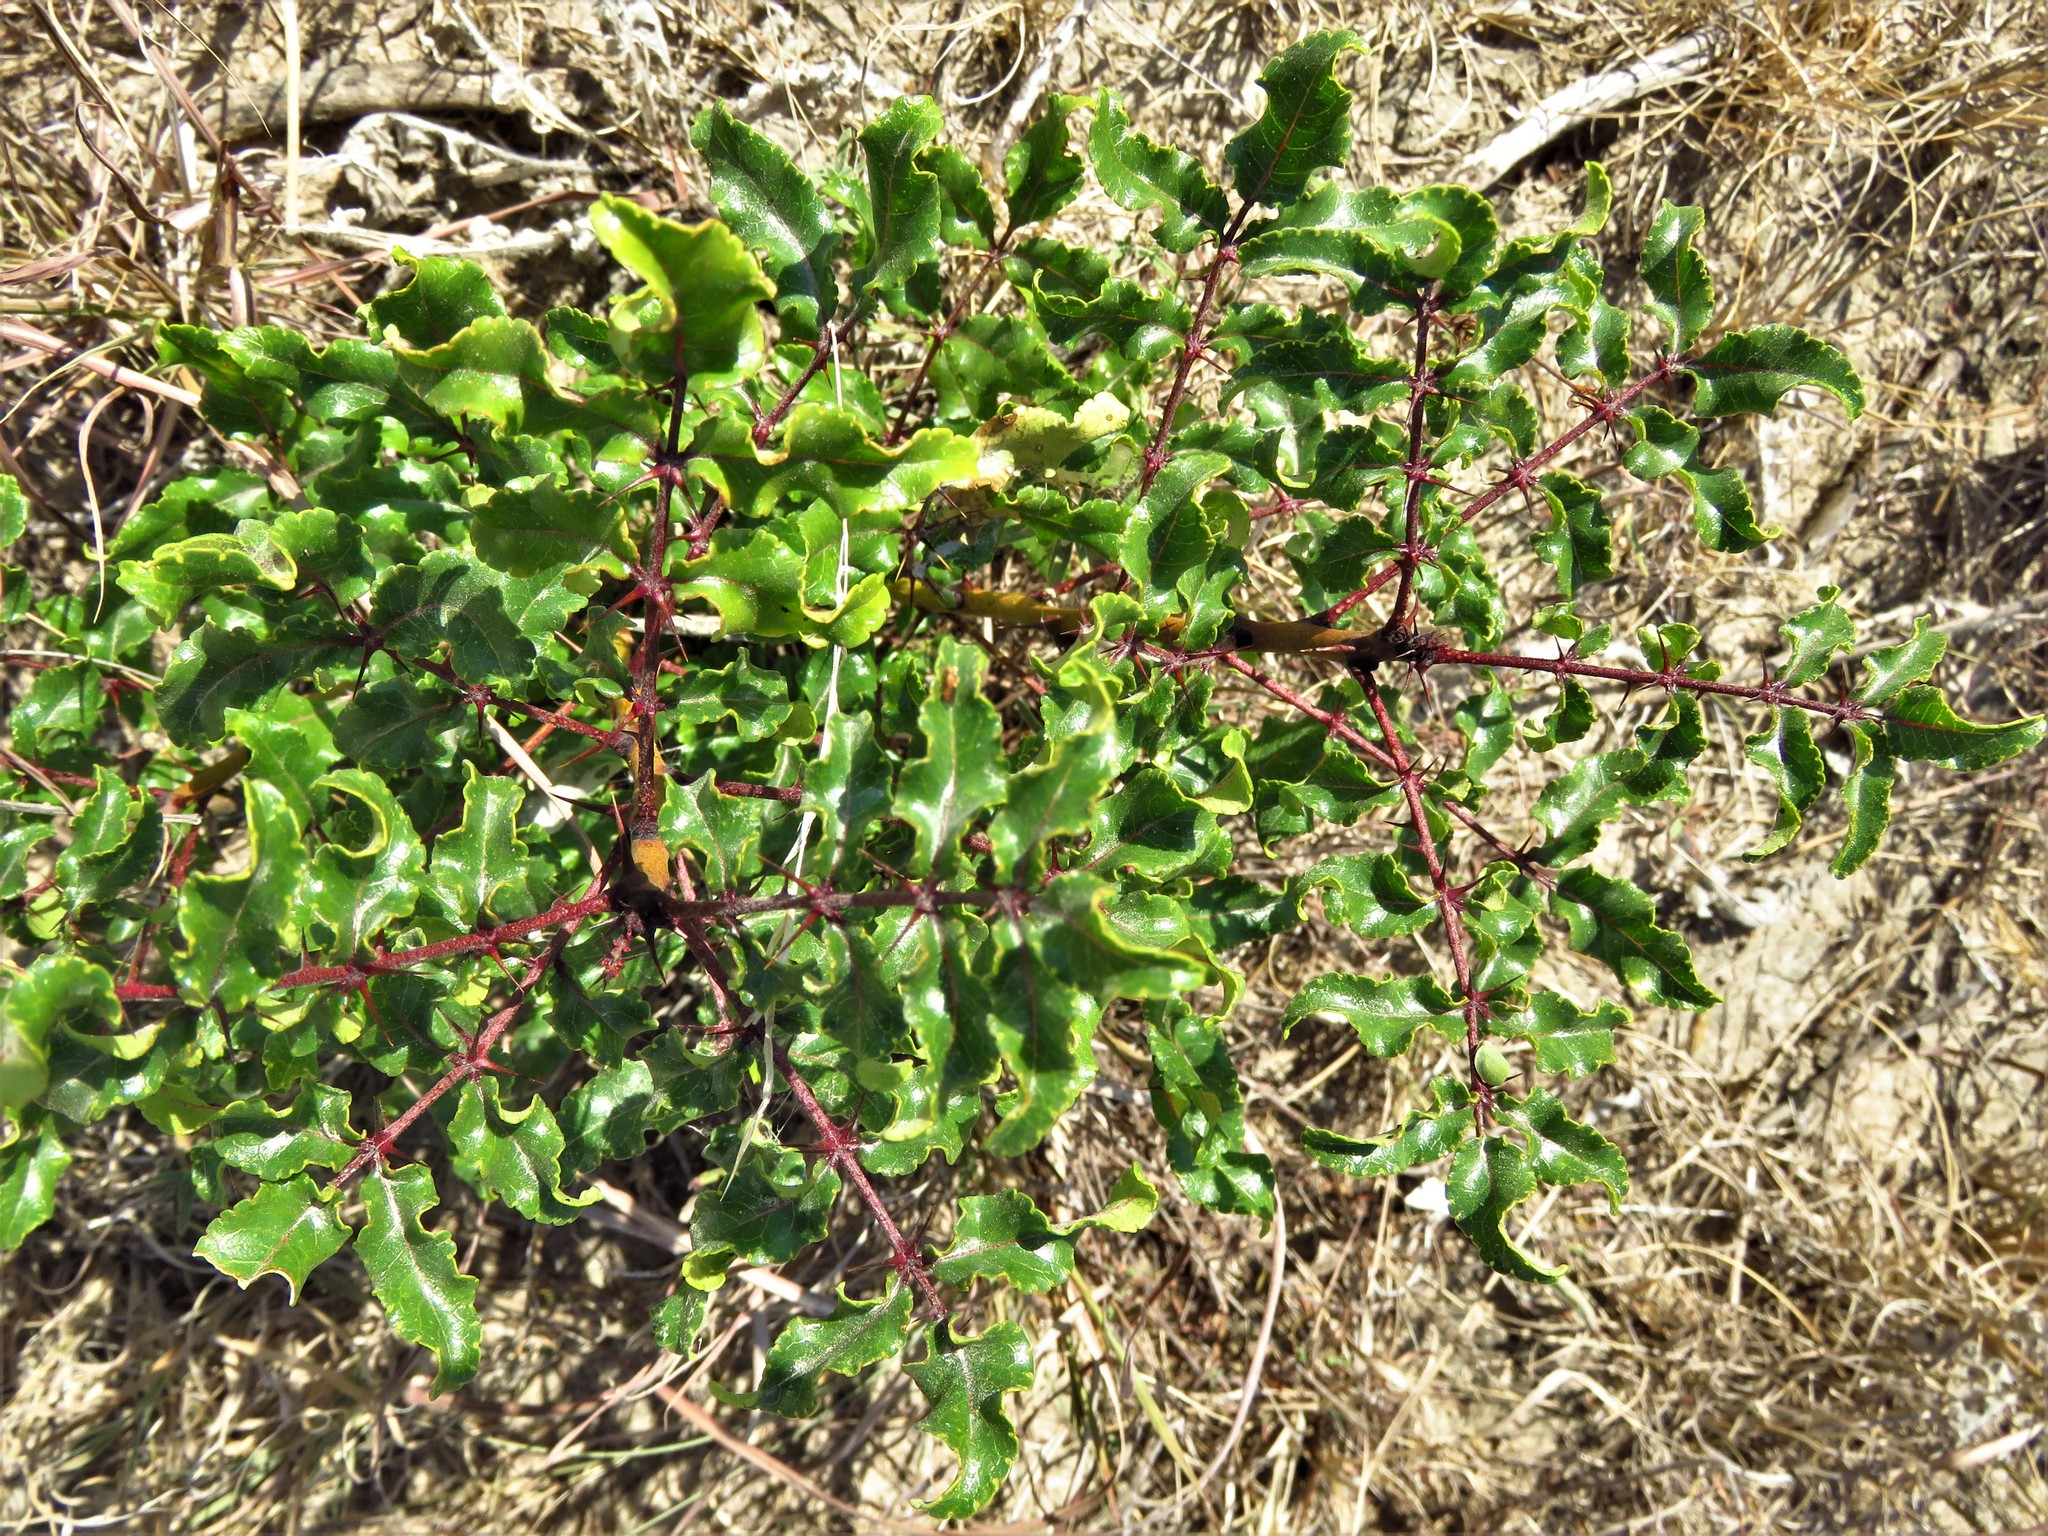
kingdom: Plantae
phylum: Tracheophyta
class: Magnoliopsida
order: Sapindales
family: Rutaceae
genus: Zanthoxylum
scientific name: Zanthoxylum clava-herculis
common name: Hercules'-club
